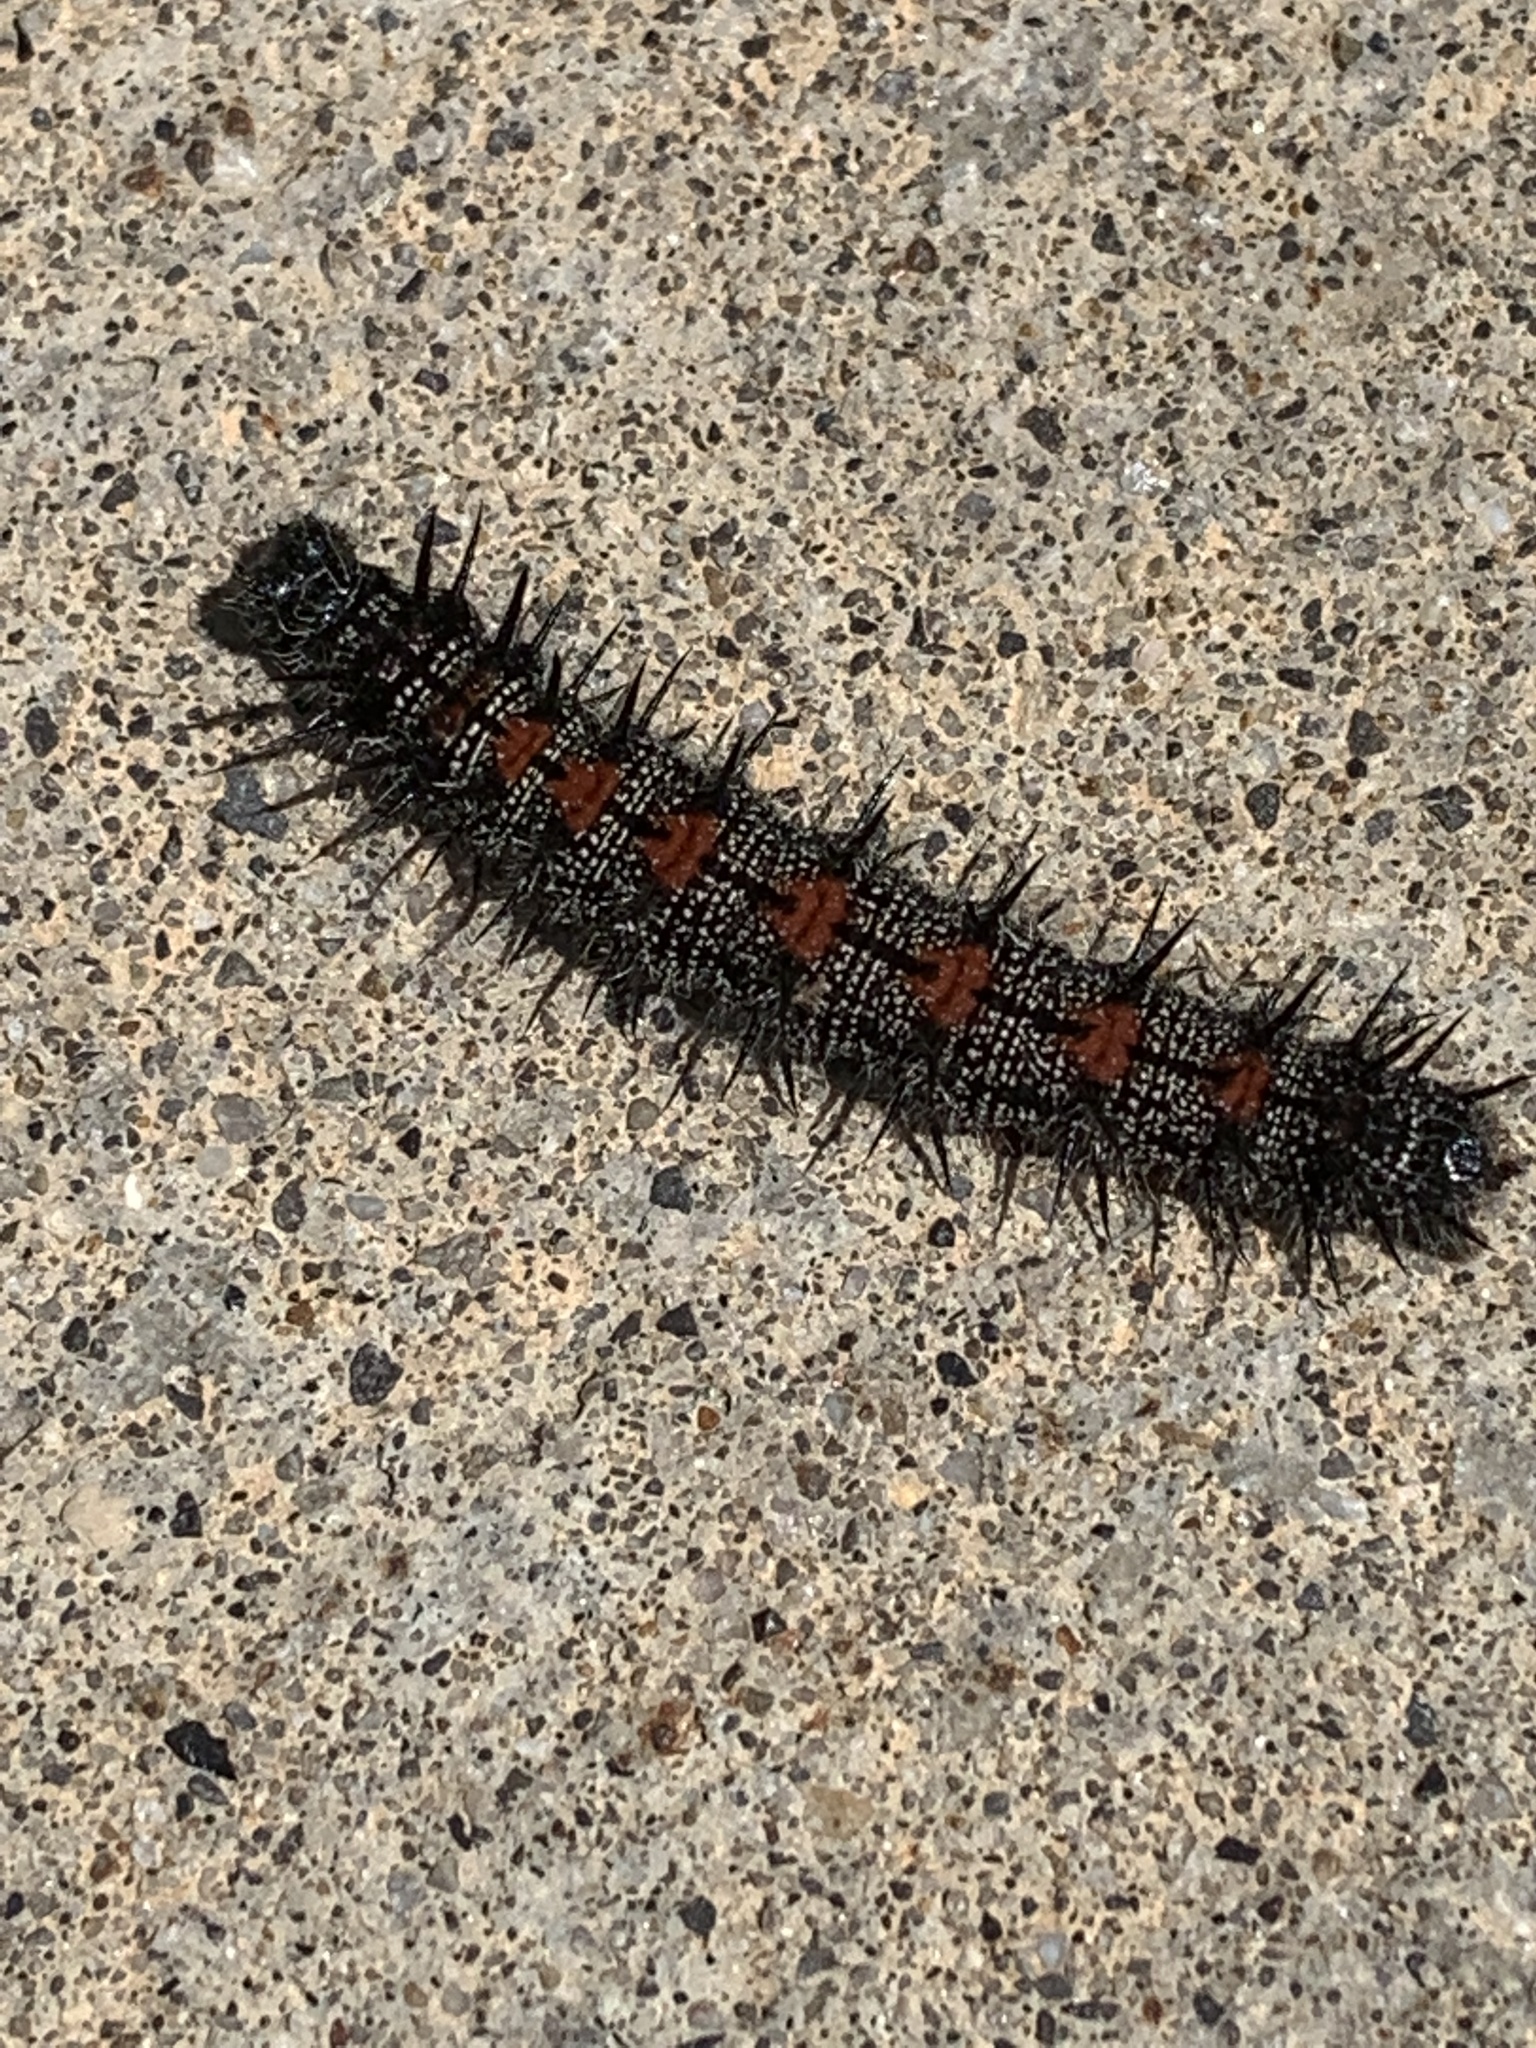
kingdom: Animalia
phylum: Arthropoda
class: Insecta
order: Lepidoptera
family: Nymphalidae
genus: Nymphalis
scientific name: Nymphalis antiopa
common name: Camberwell beauty
